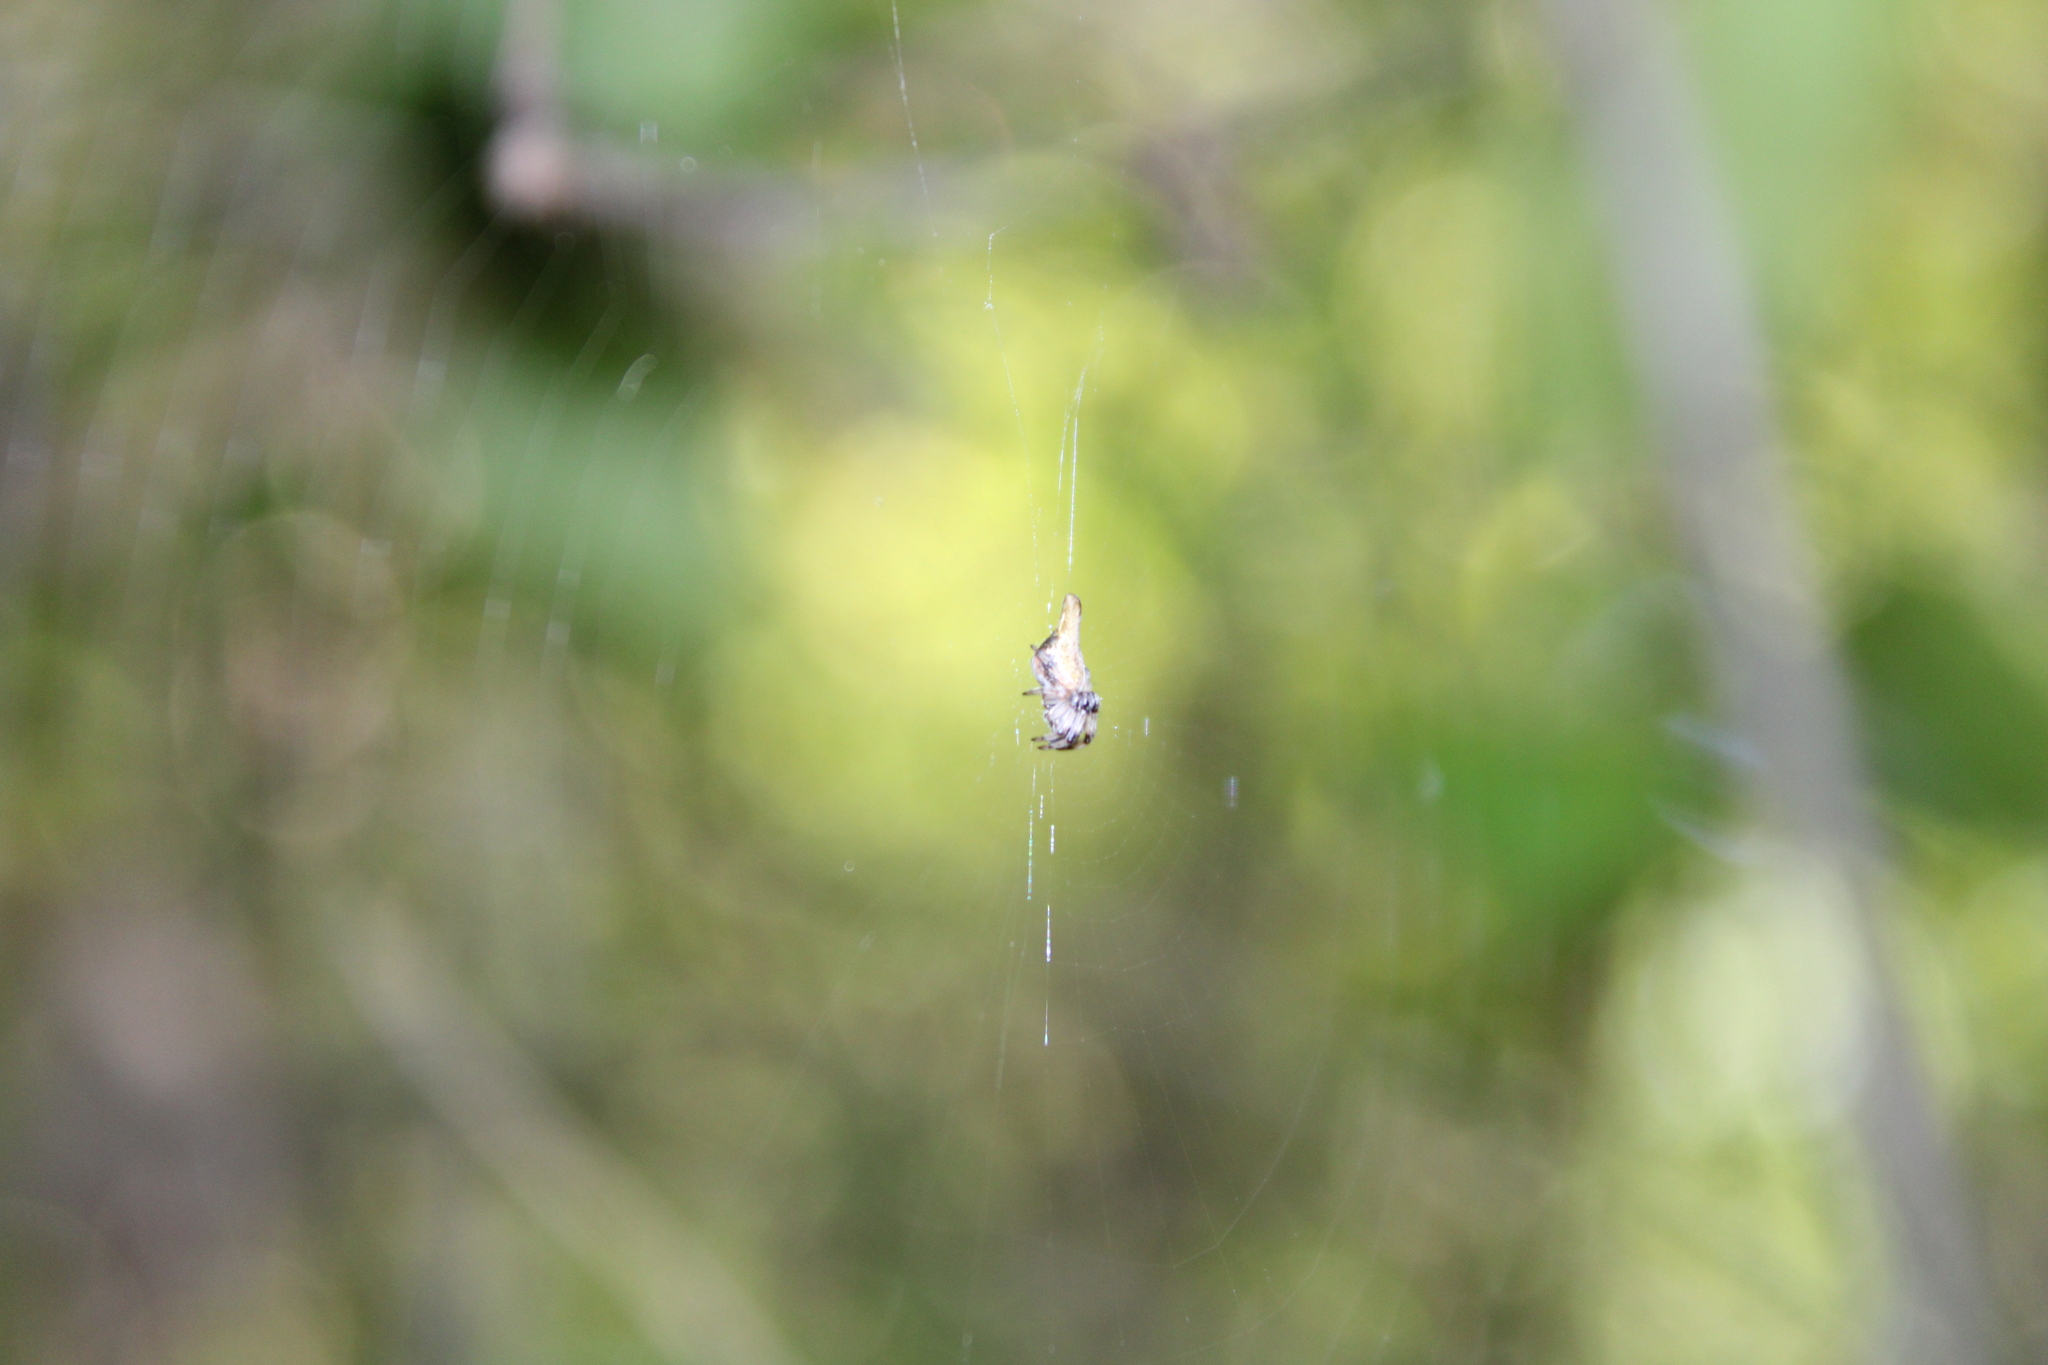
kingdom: Animalia
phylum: Arthropoda
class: Arachnida
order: Araneae
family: Araneidae
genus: Cyclosa
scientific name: Cyclosa conica
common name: Conical trashline orbweaver
